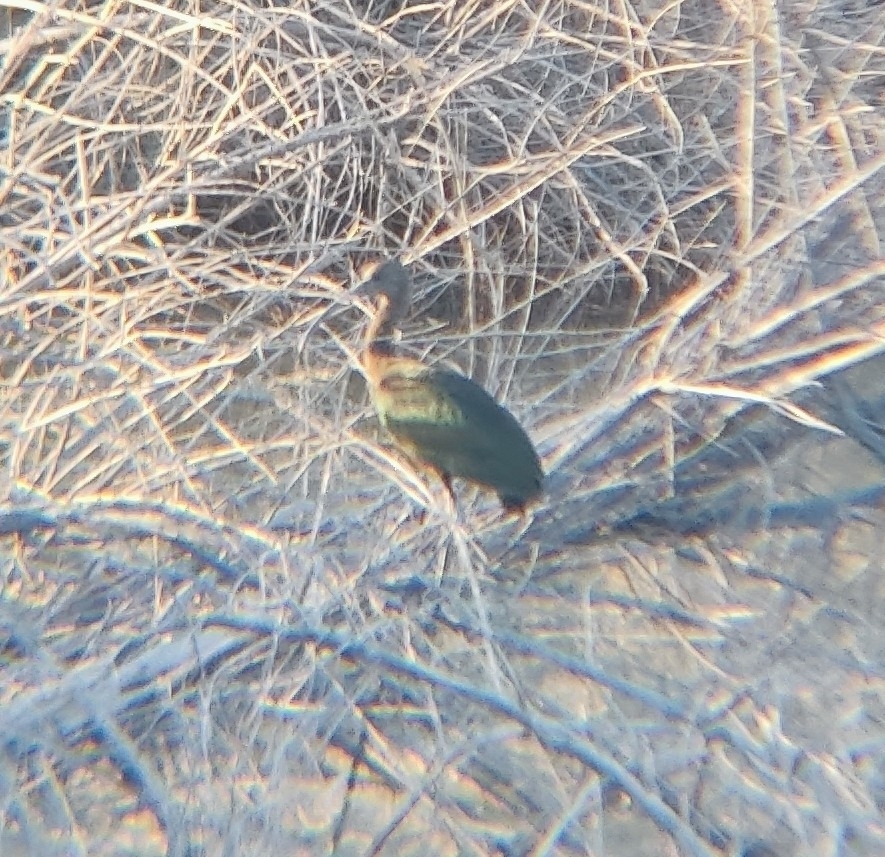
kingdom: Animalia
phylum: Chordata
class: Aves
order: Pelecaniformes
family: Threskiornithidae
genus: Plegadis
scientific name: Plegadis chihi
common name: White-faced ibis
